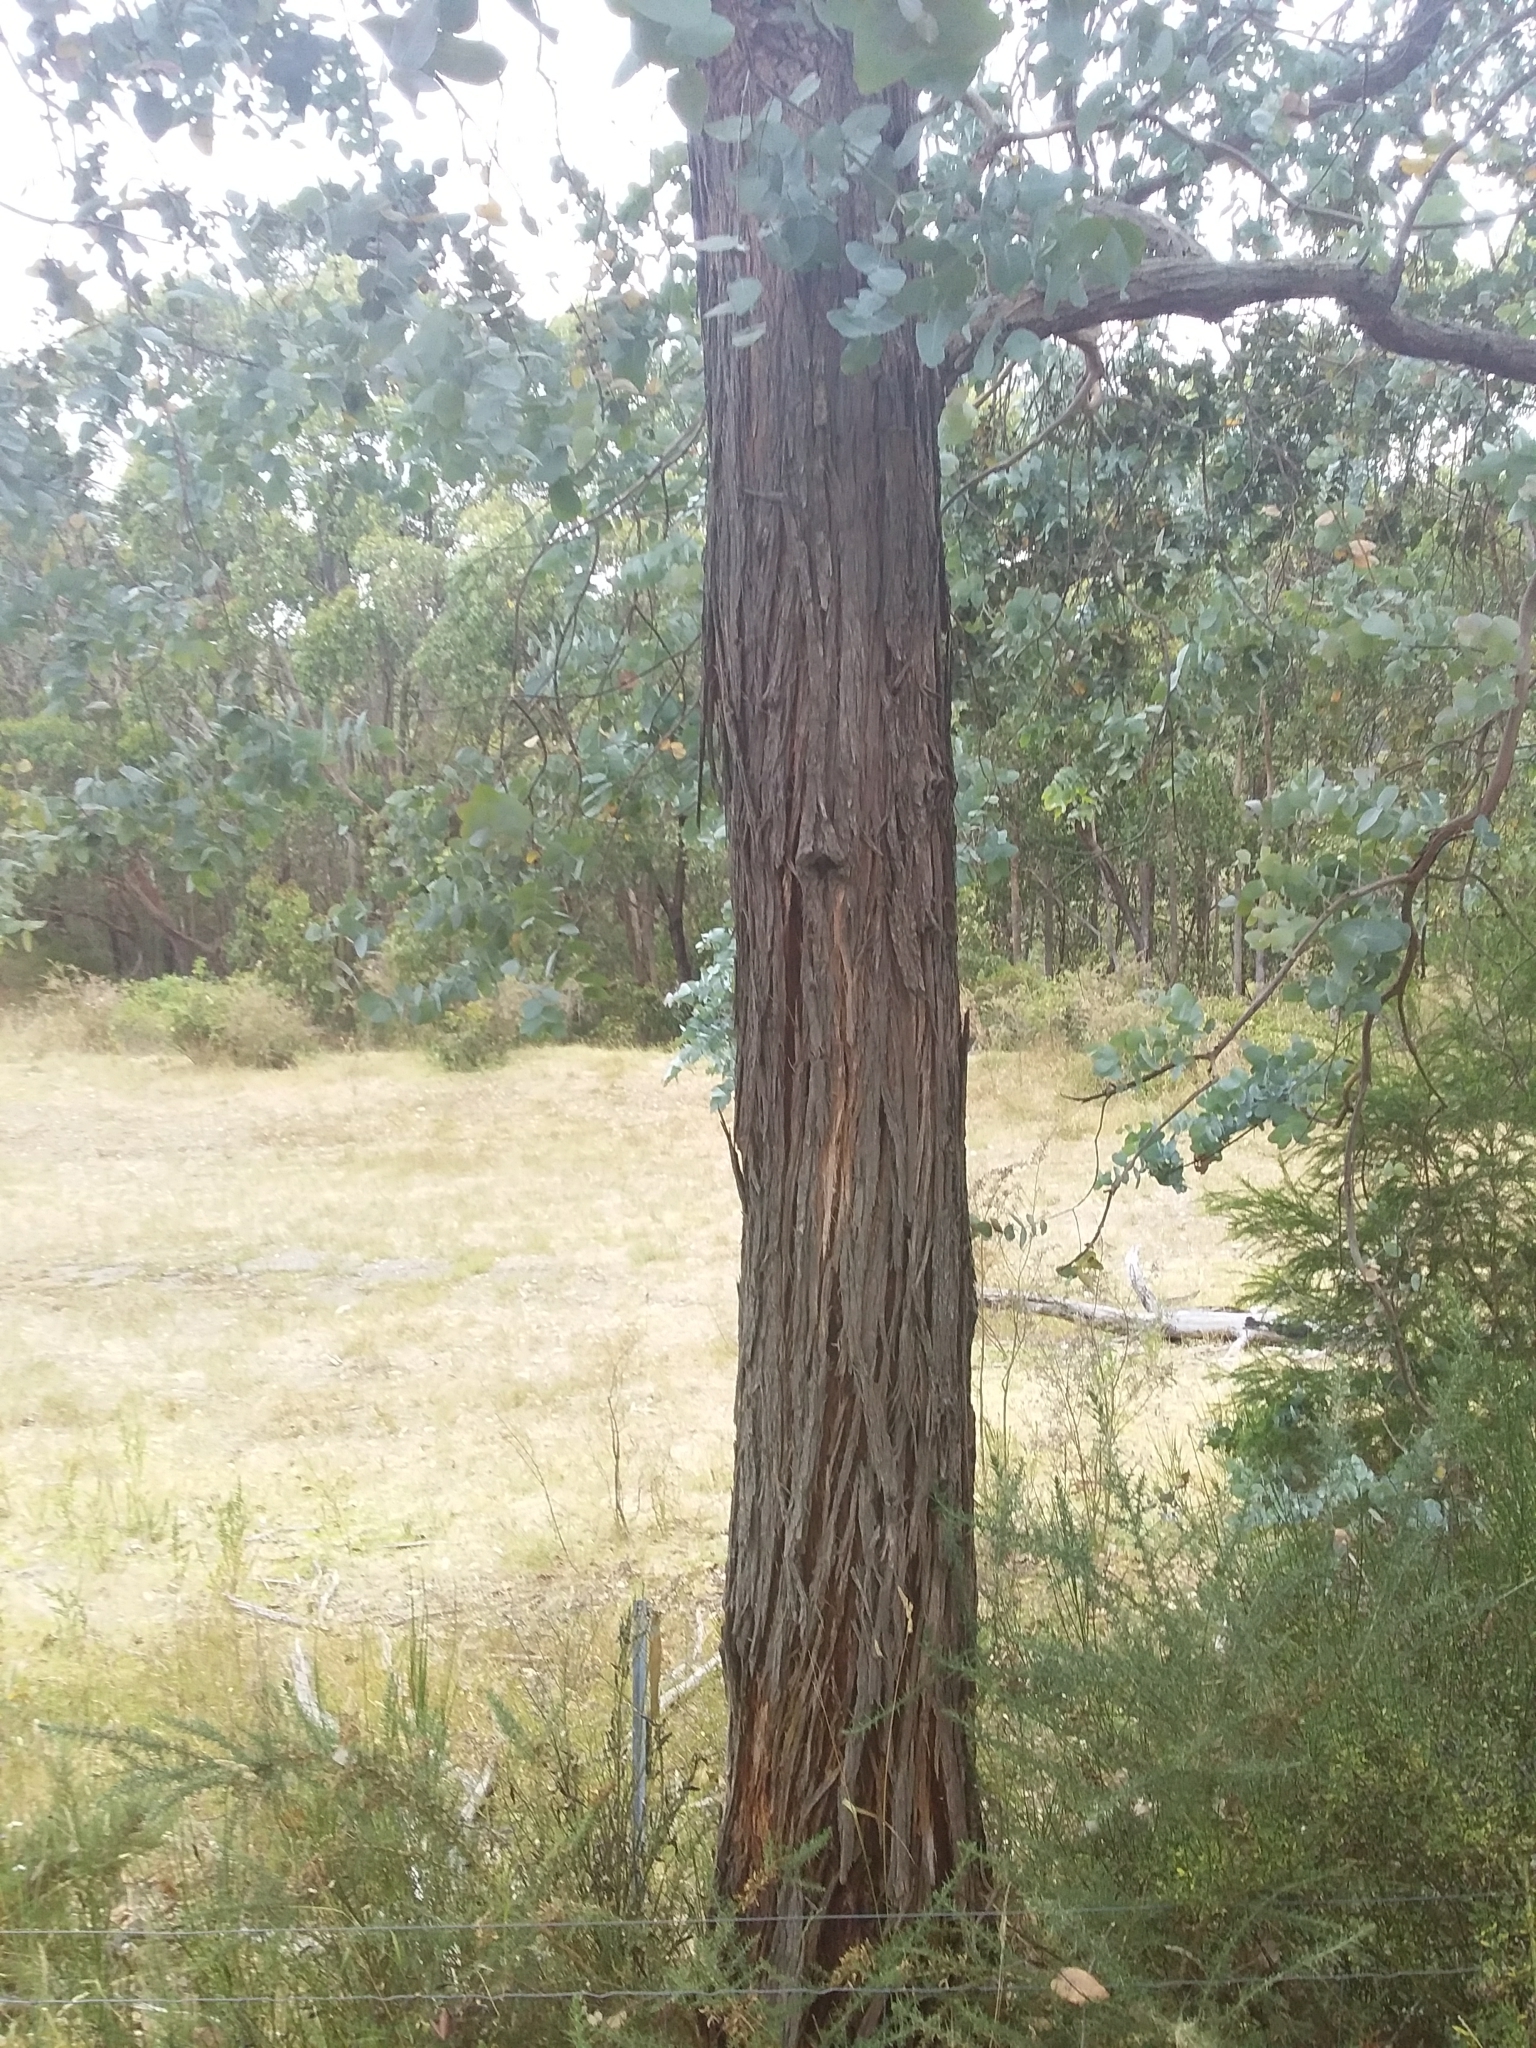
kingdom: Plantae
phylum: Tracheophyta
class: Magnoliopsida
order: Myrtales
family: Myrtaceae
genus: Eucalyptus
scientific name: Eucalyptus cinerea
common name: Argyle apple
